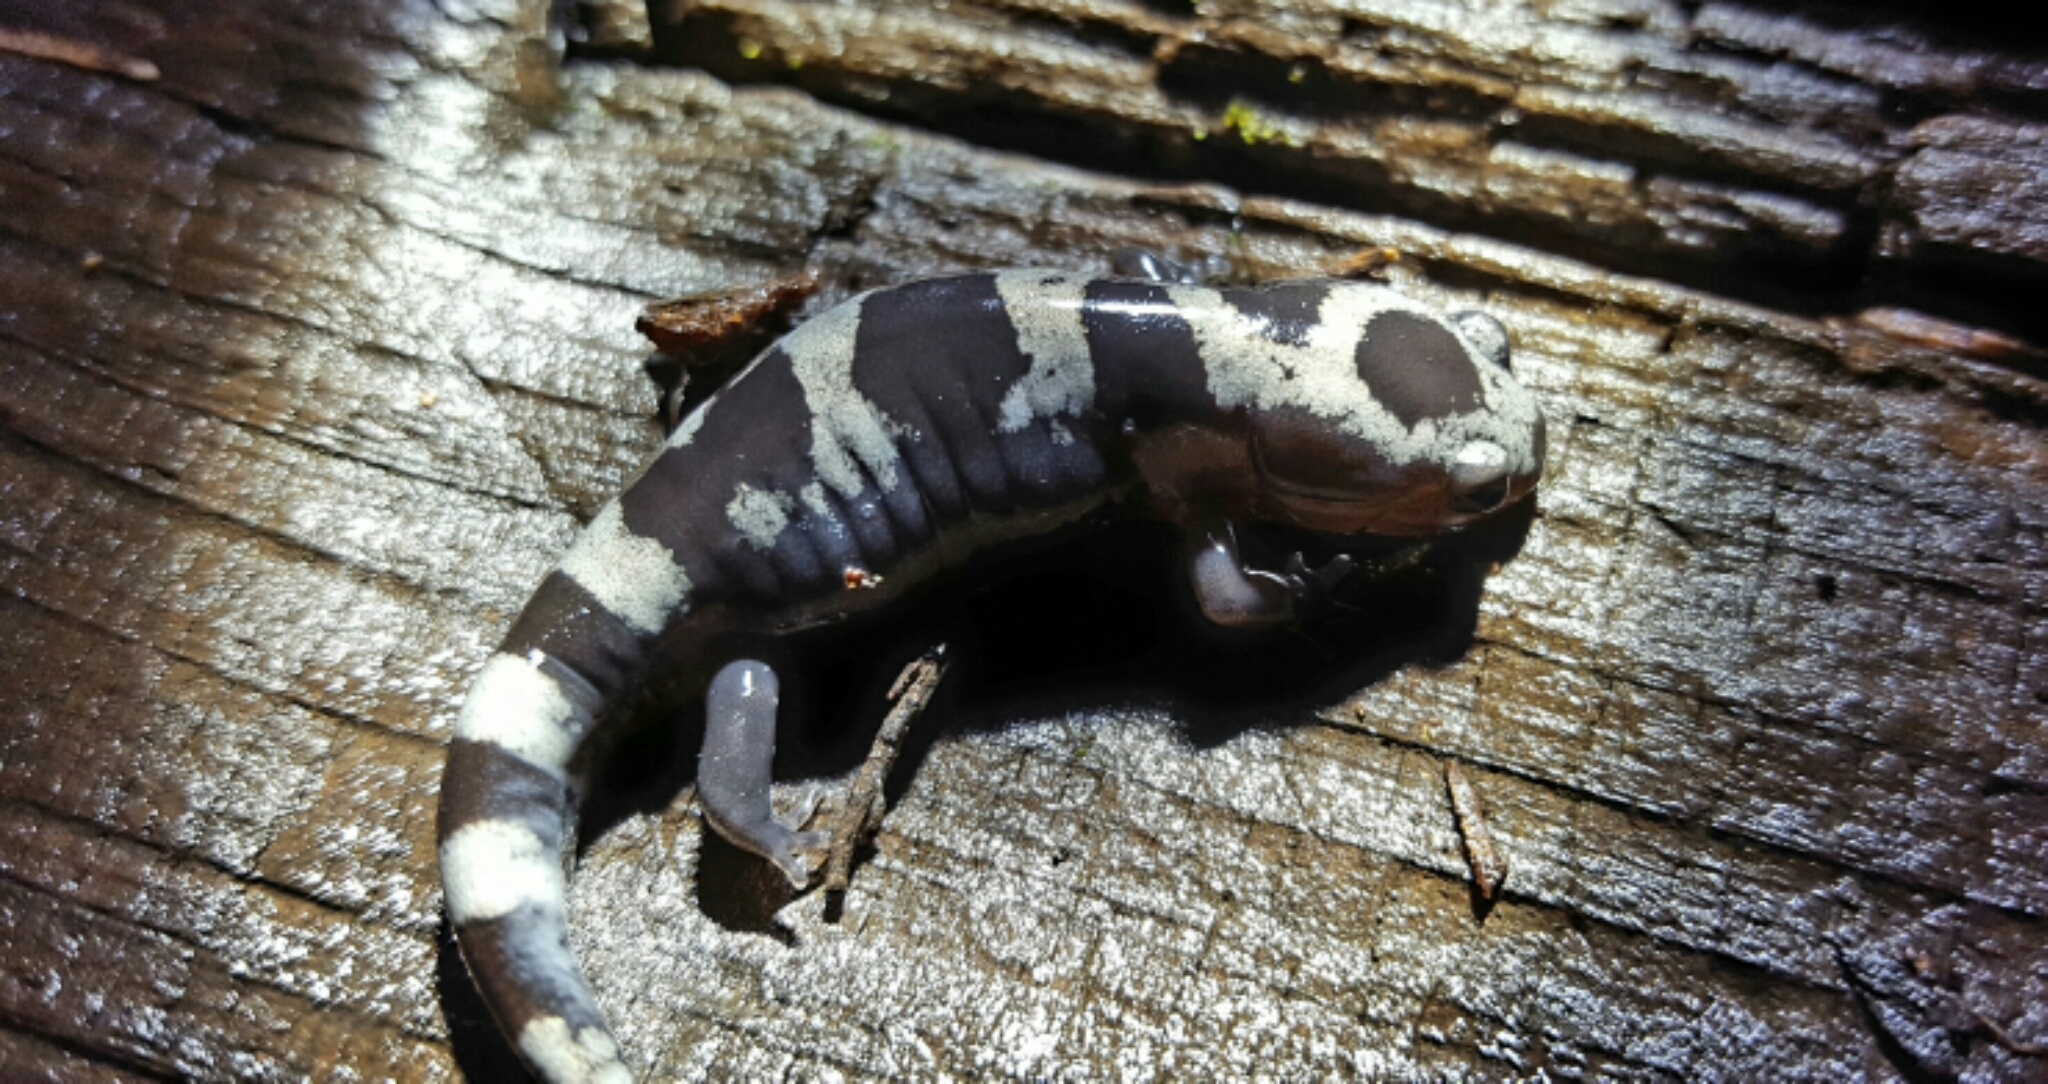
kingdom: Animalia
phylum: Chordata
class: Amphibia
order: Caudata
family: Ambystomatidae
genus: Ambystoma
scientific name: Ambystoma opacum
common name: Marbled salamander
